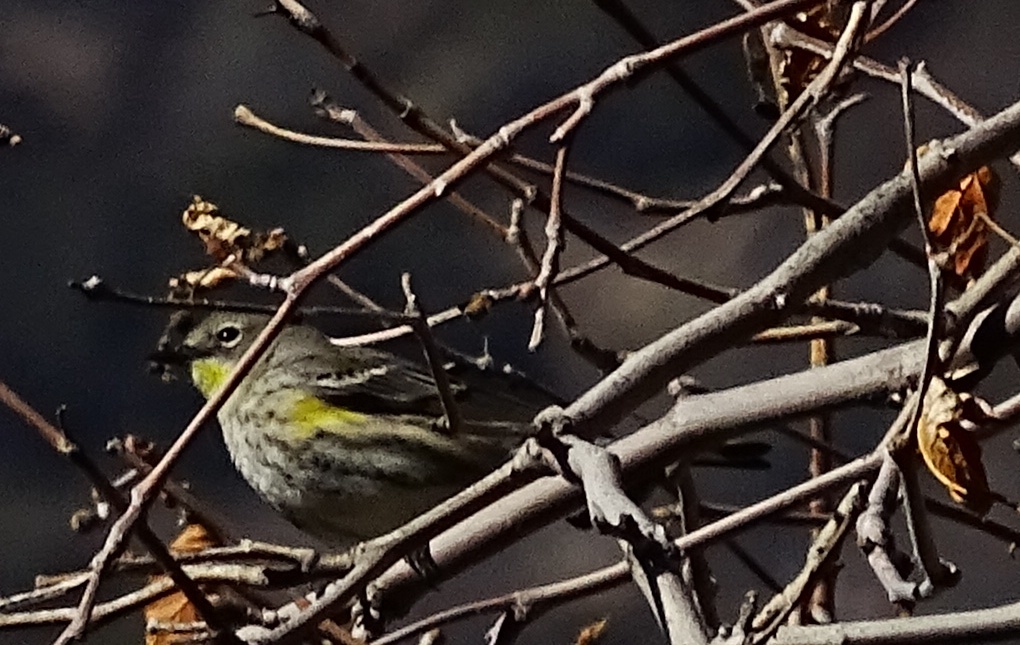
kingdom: Animalia
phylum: Chordata
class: Aves
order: Passeriformes
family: Parulidae
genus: Setophaga
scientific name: Setophaga coronata
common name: Myrtle warbler
